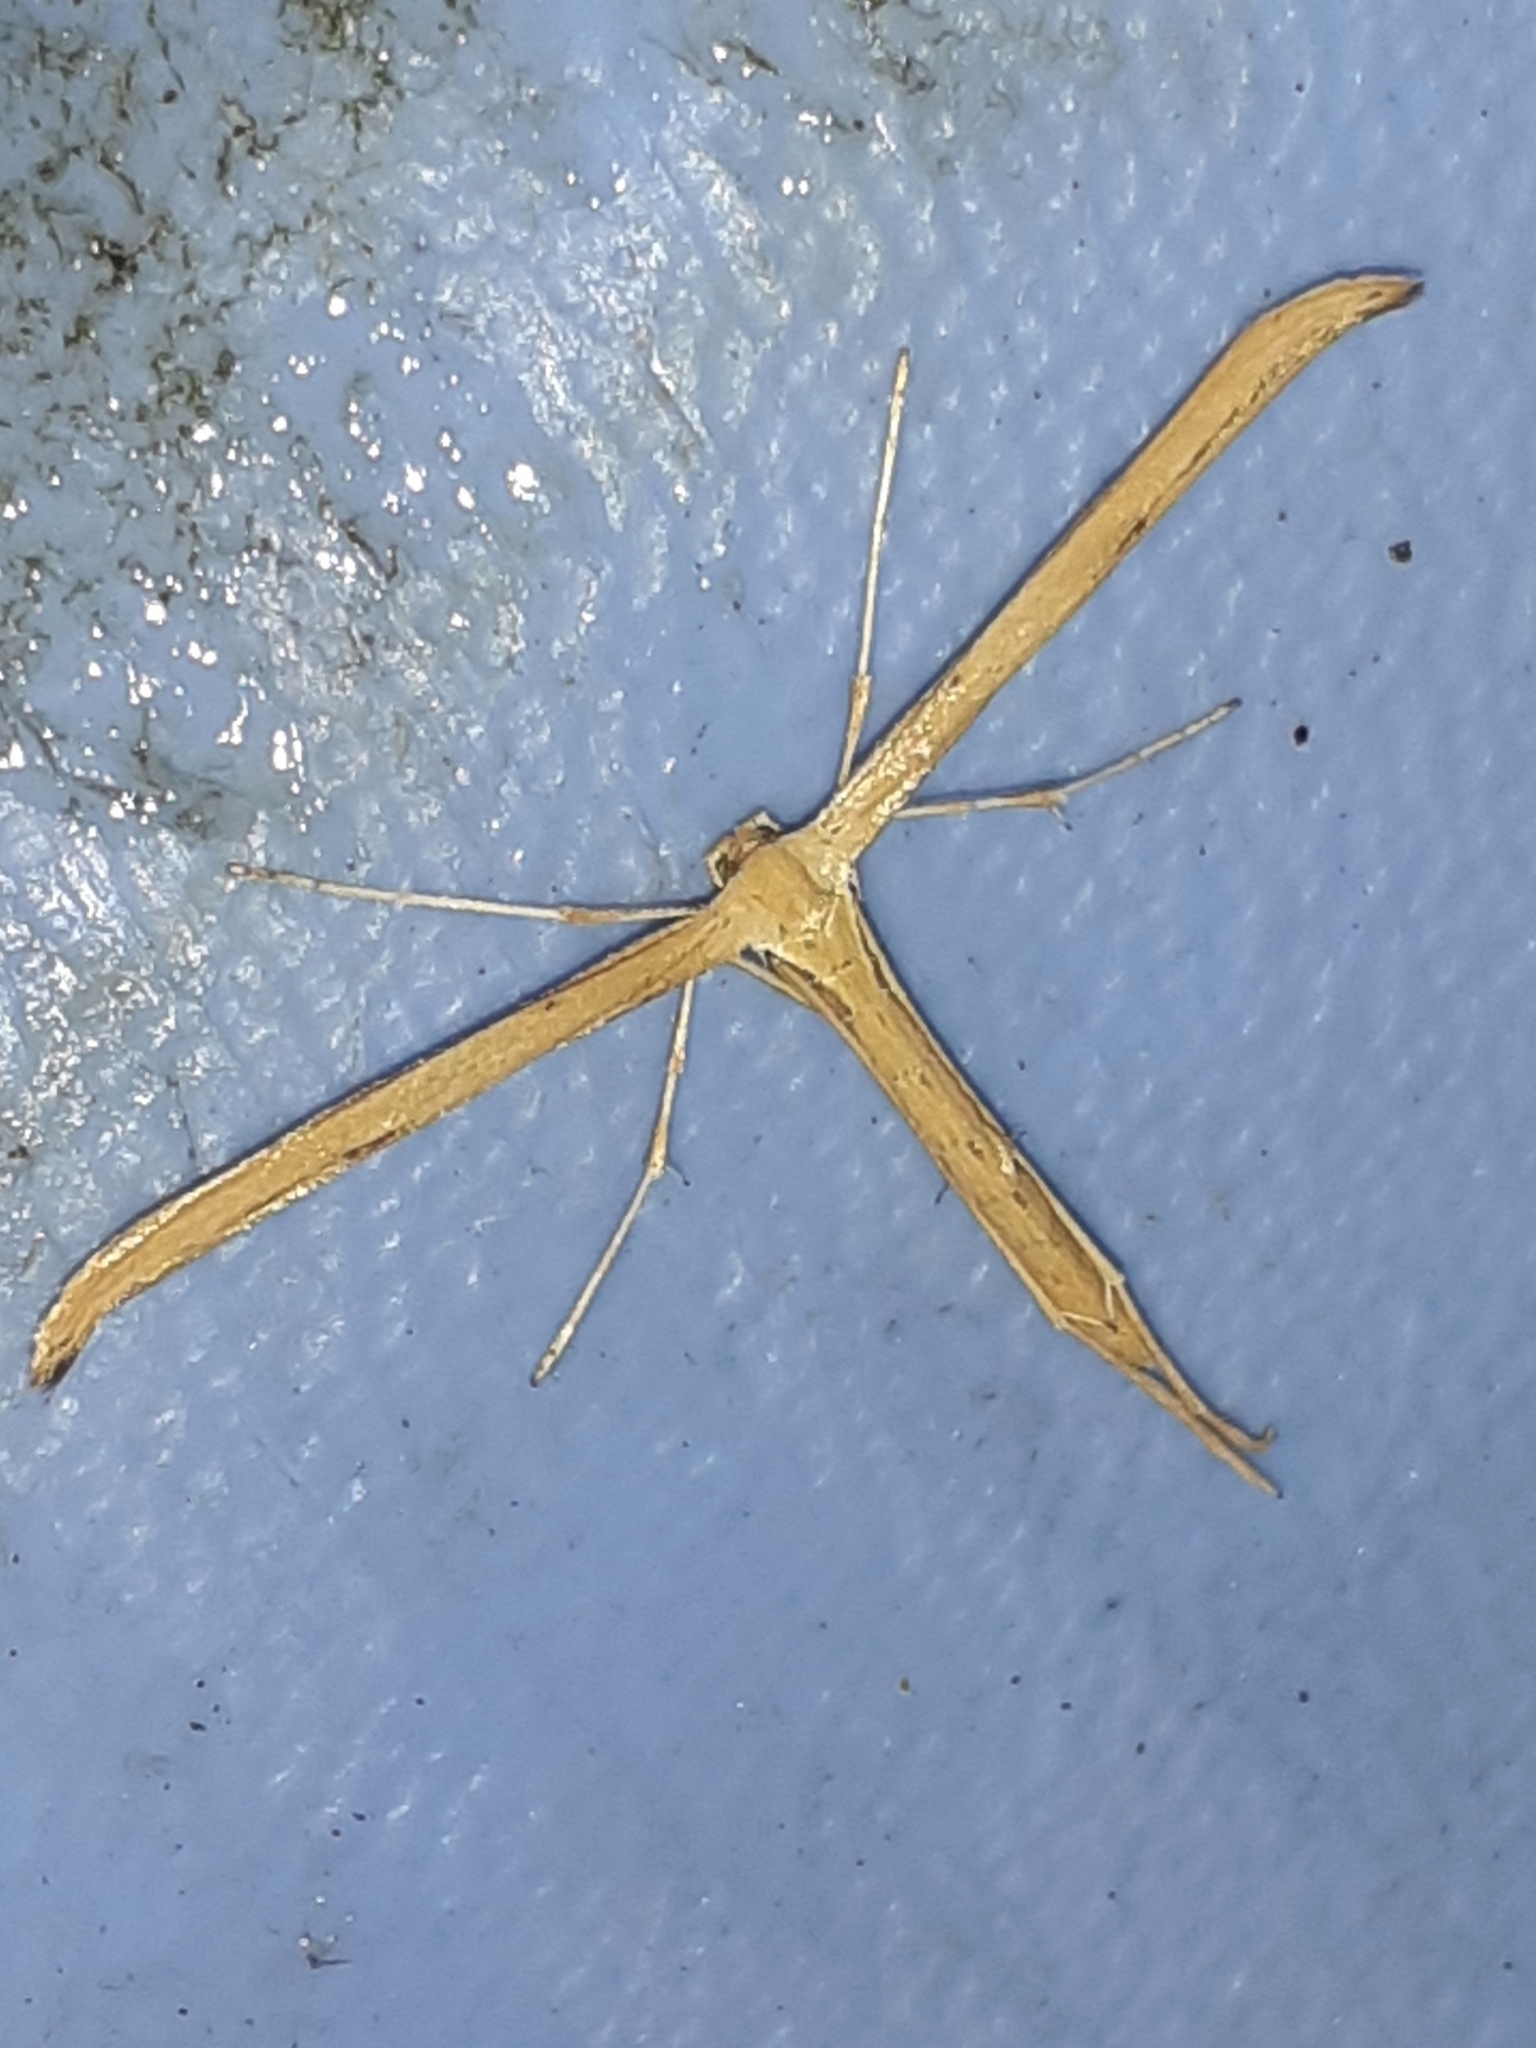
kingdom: Animalia
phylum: Arthropoda
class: Insecta
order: Lepidoptera
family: Pterophoridae
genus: Emmelina
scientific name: Emmelina monodactyla
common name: Common plume
